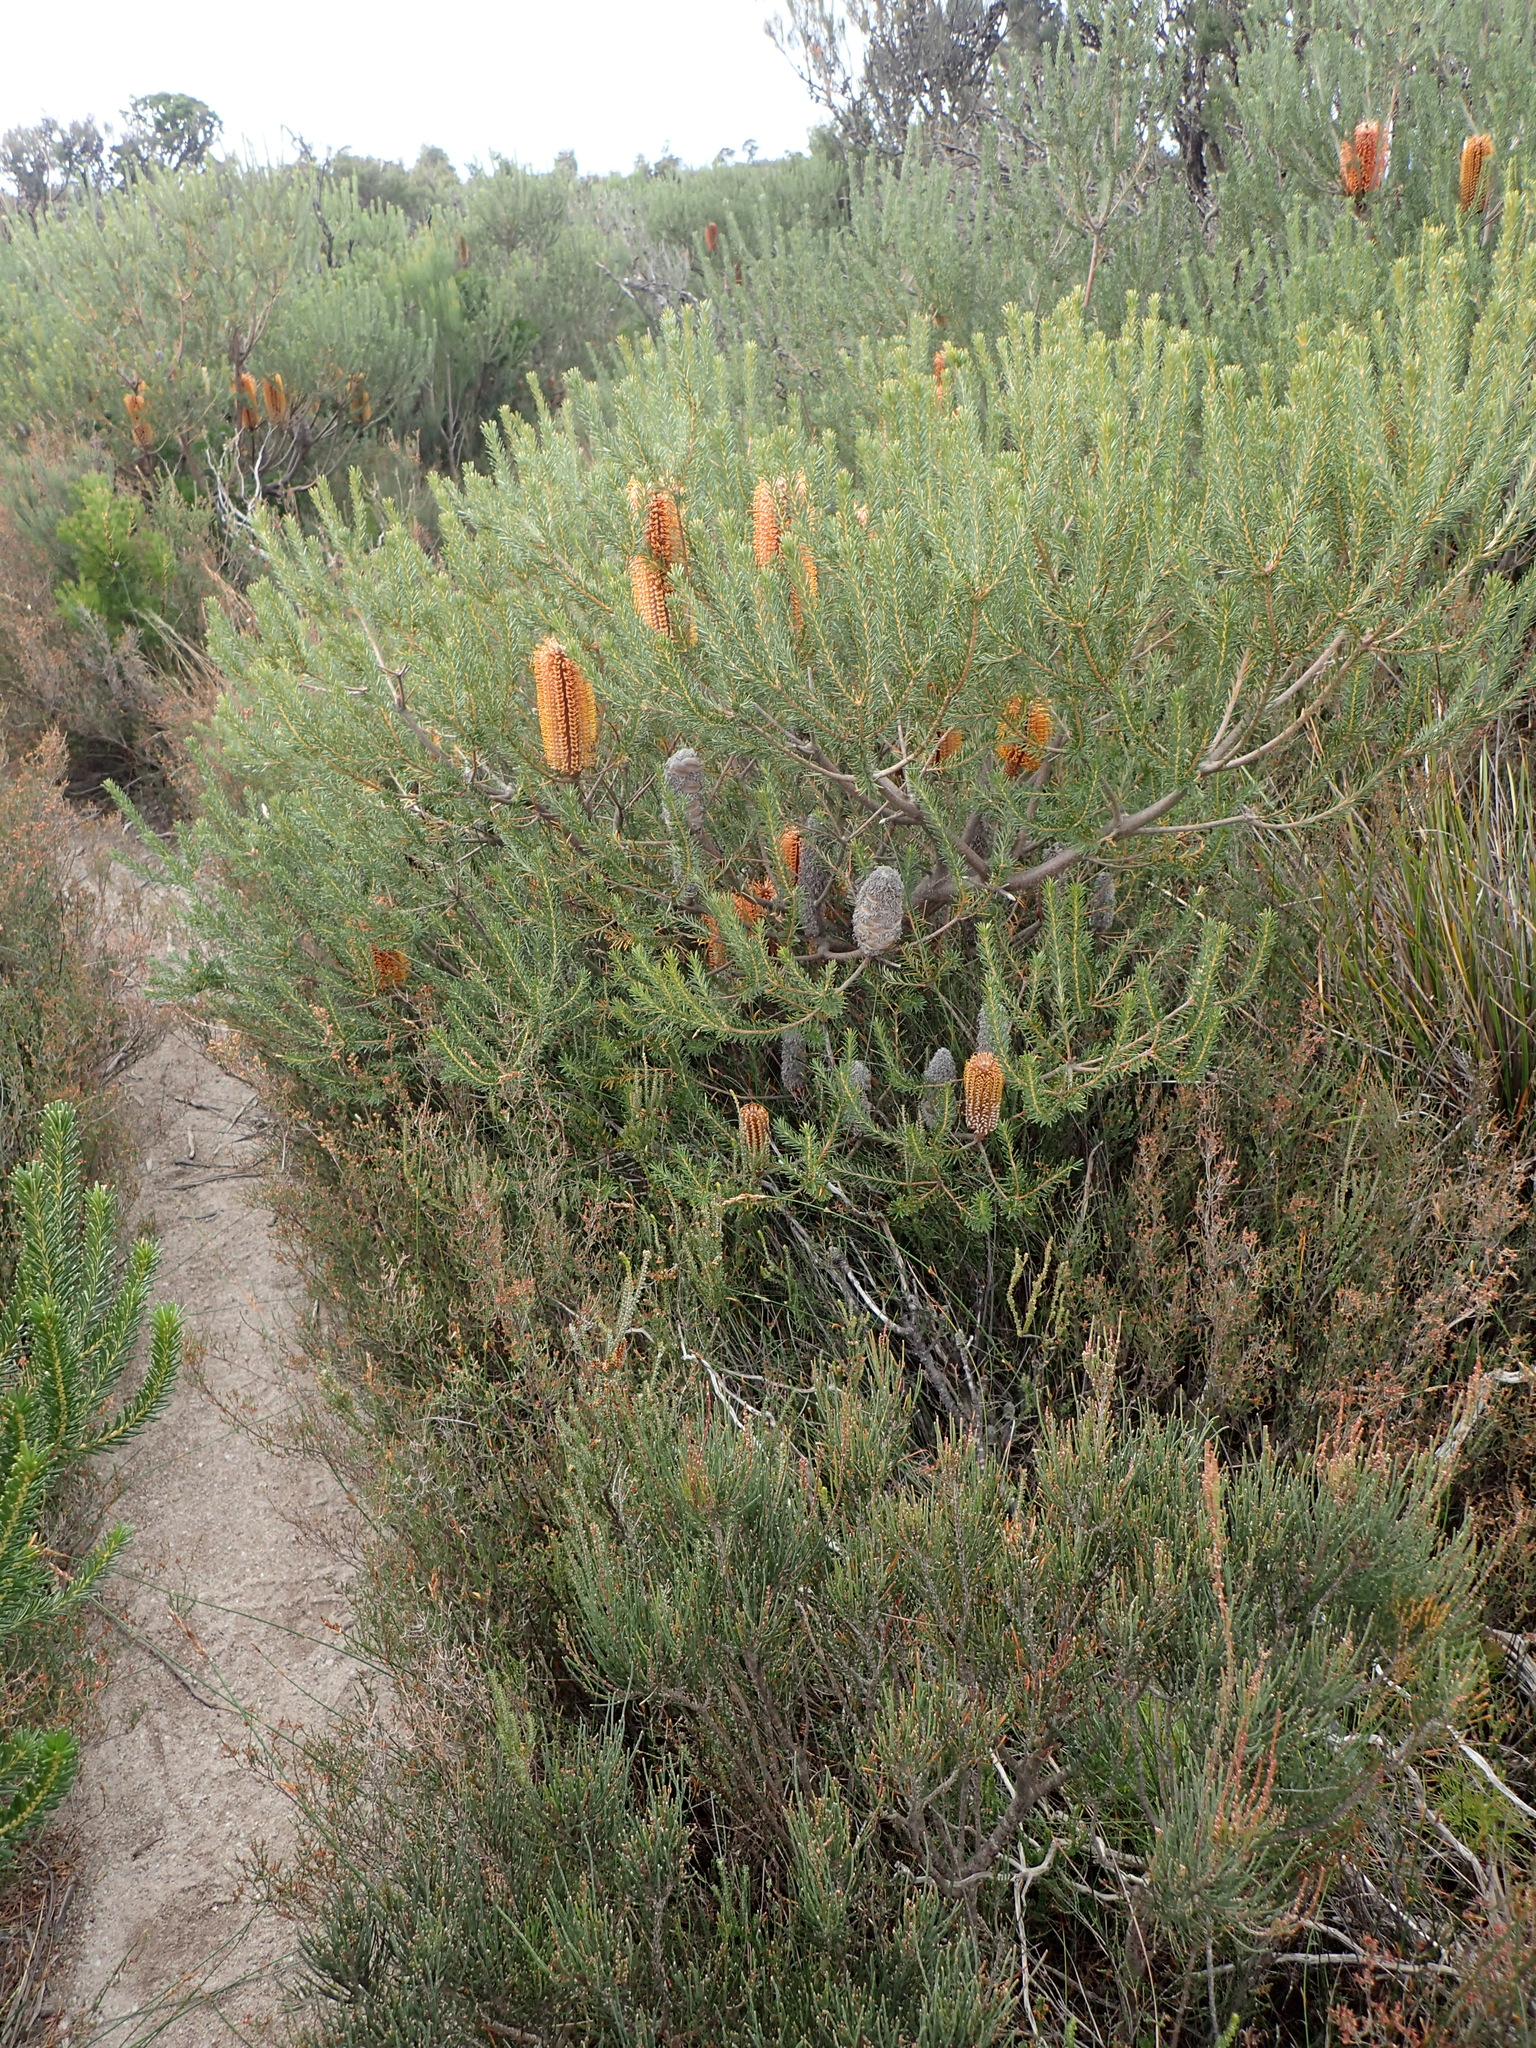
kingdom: Plantae
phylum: Tracheophyta
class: Magnoliopsida
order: Proteales
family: Proteaceae
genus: Banksia
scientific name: Banksia ericifolia
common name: Heath-leaf banksia
